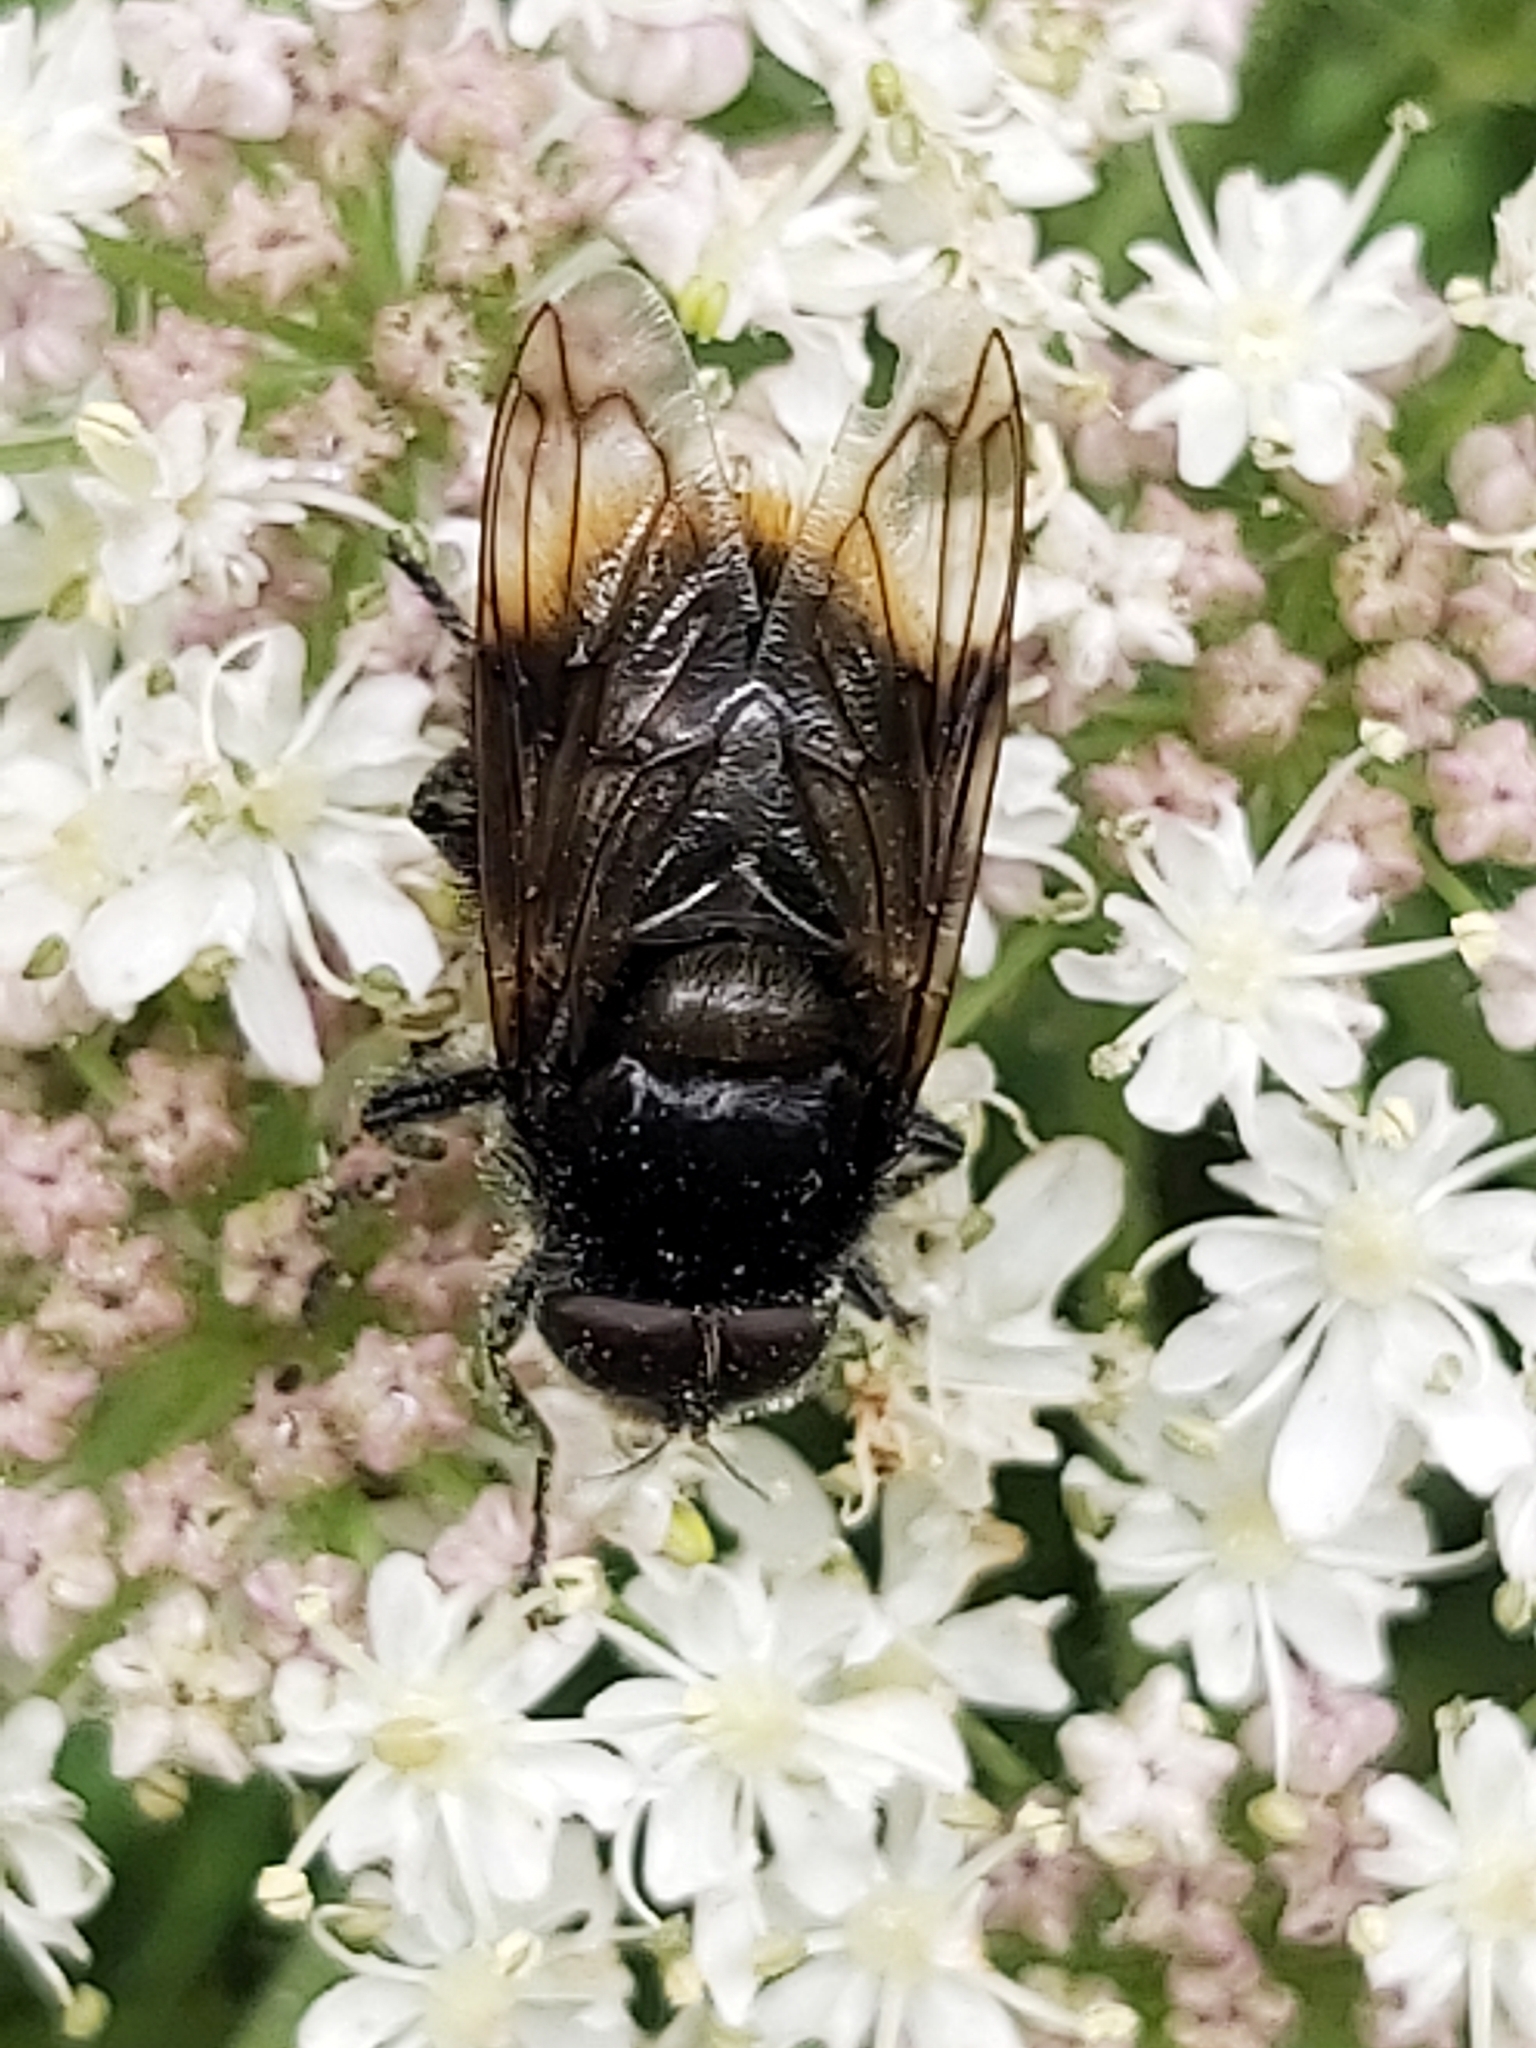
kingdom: Animalia
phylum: Arthropoda
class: Insecta
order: Diptera
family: Syrphidae
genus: Volucella
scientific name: Volucella bombylans
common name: Bumble bee hover fly
